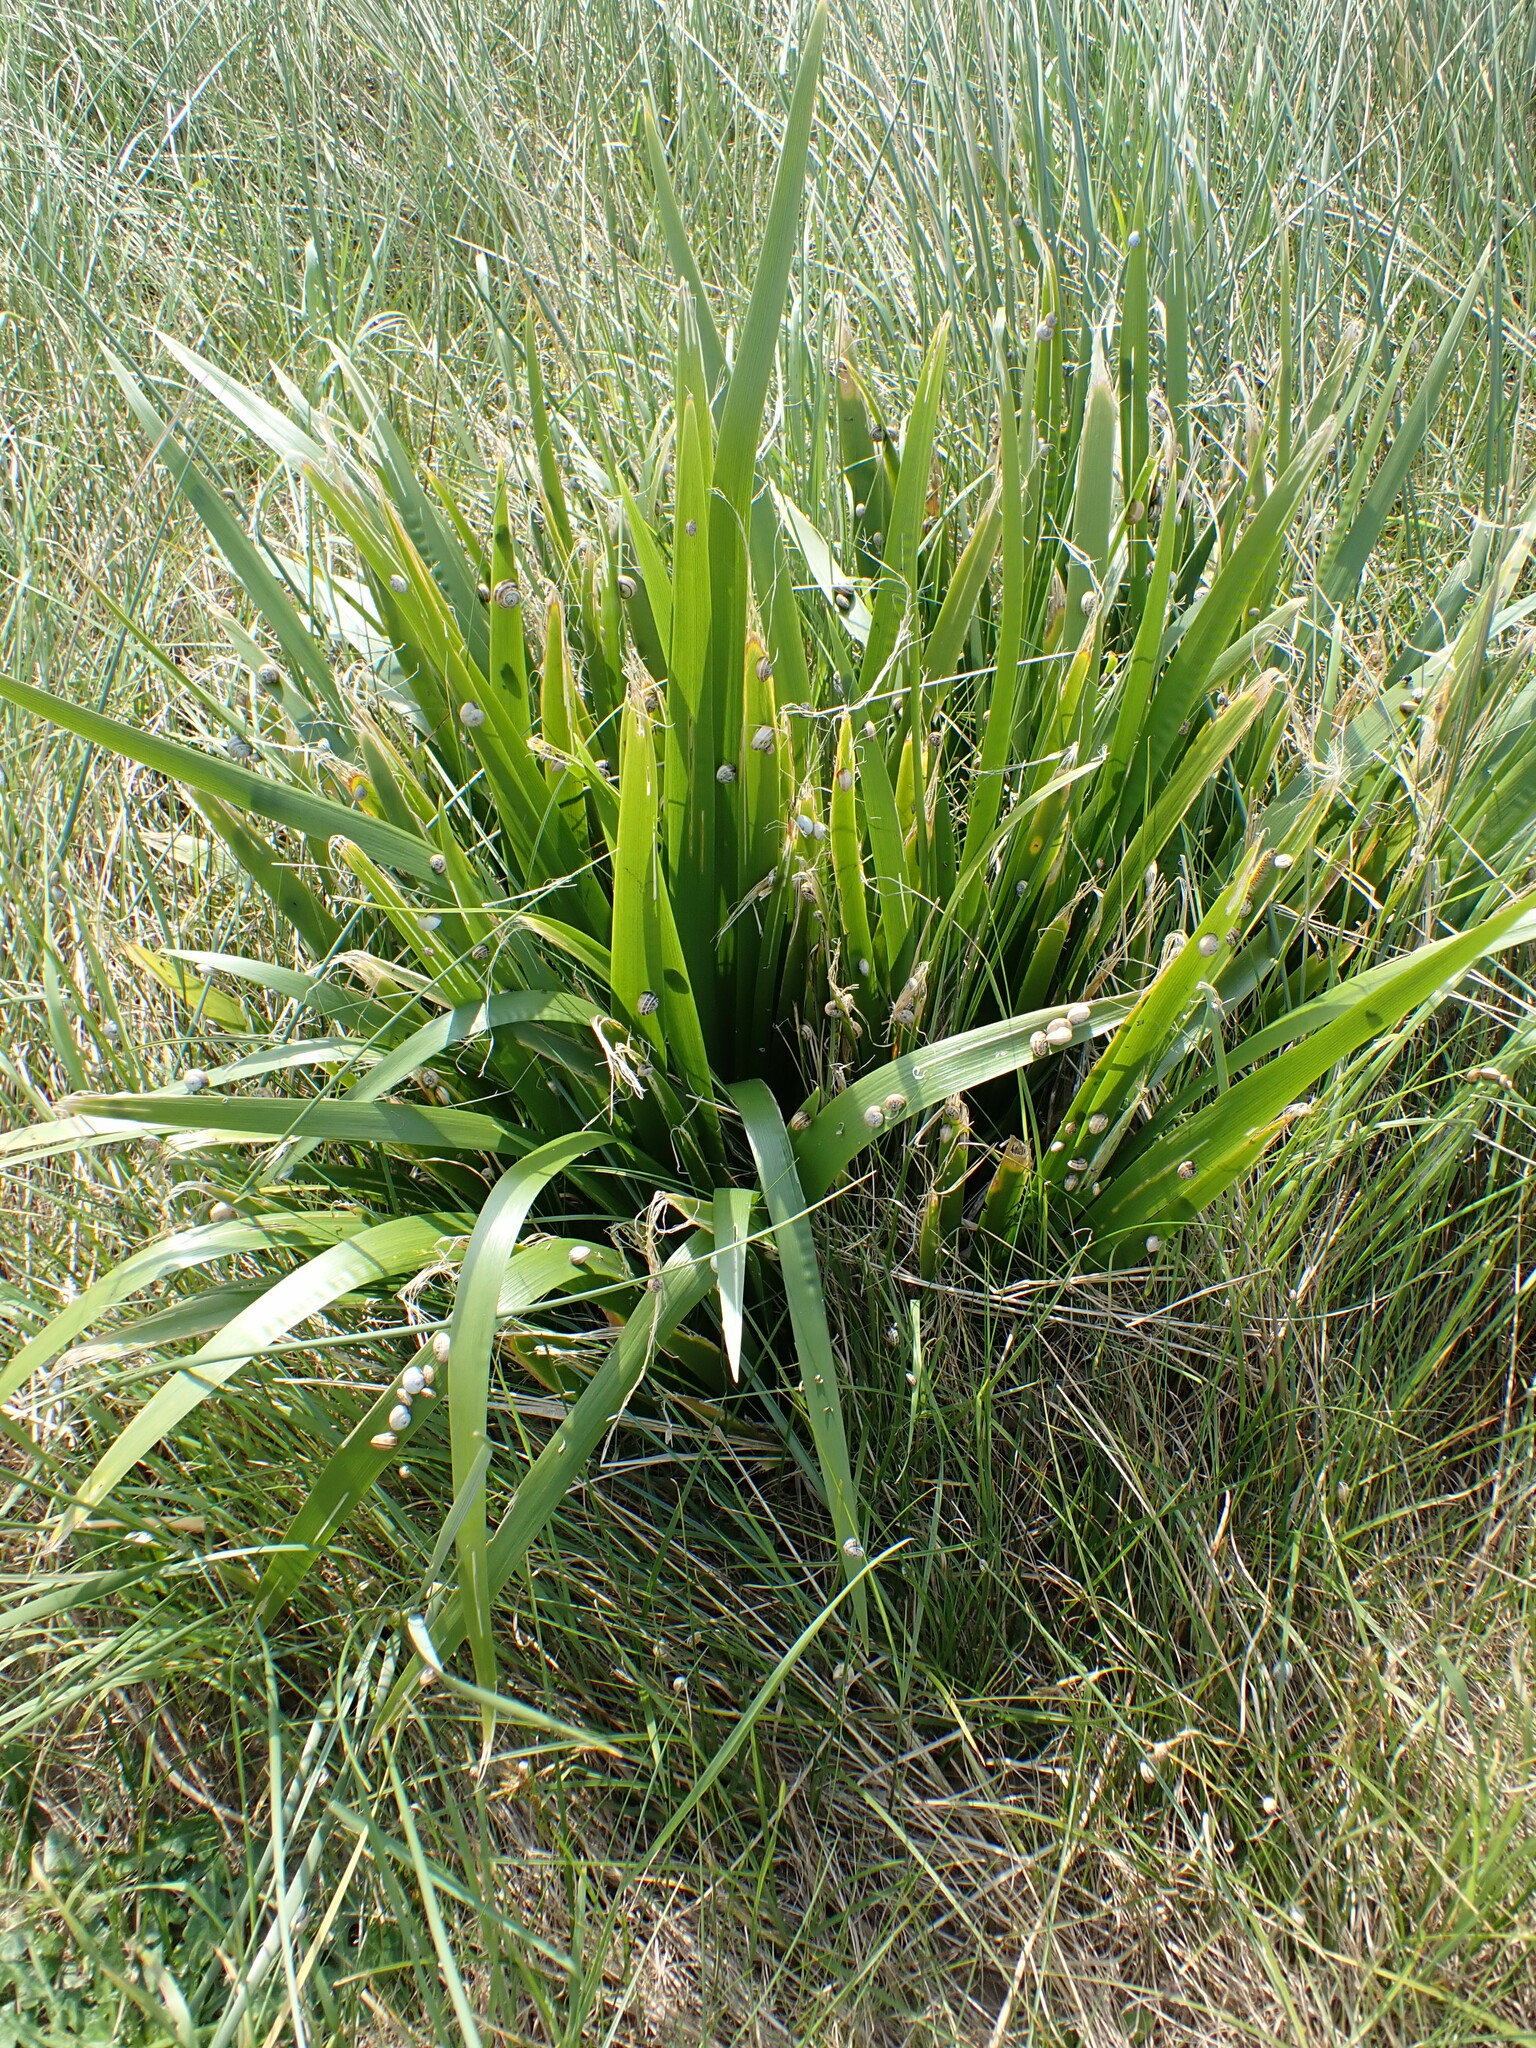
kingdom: Plantae
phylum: Tracheophyta
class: Liliopsida
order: Asparagales
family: Iridaceae
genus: Iris
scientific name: Iris foetidissima
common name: Stinking iris
